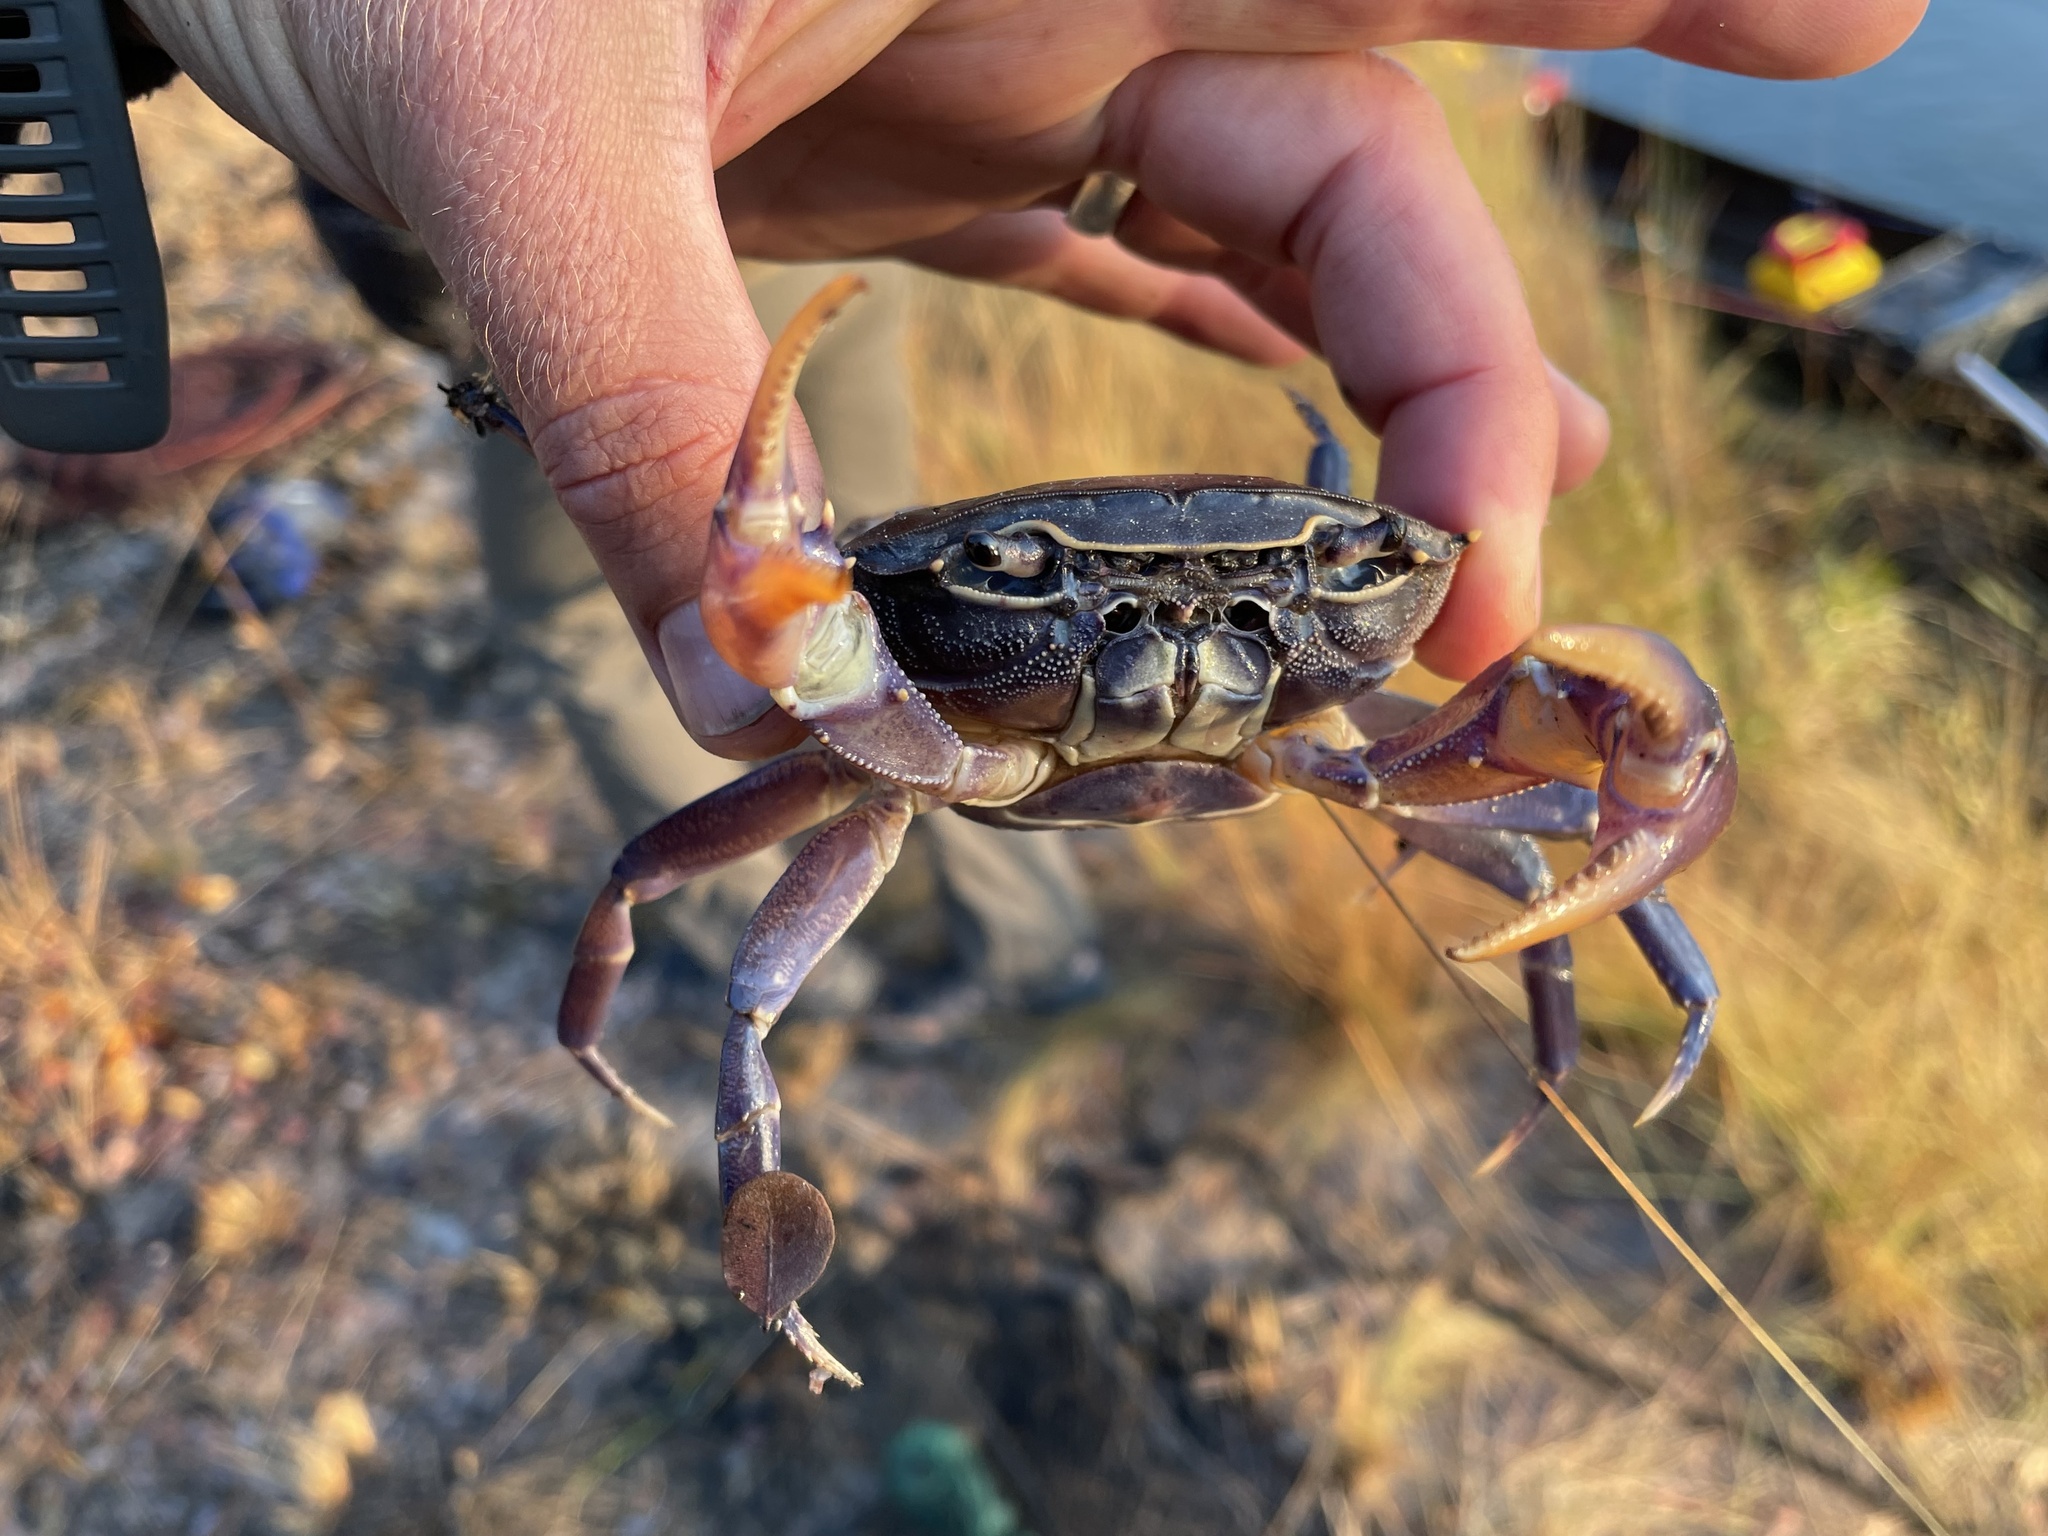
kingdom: Animalia
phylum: Arthropoda
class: Malacostraca
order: Decapoda
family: Potamonautidae
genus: Potamonautes
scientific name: Potamonautes bayonianus
